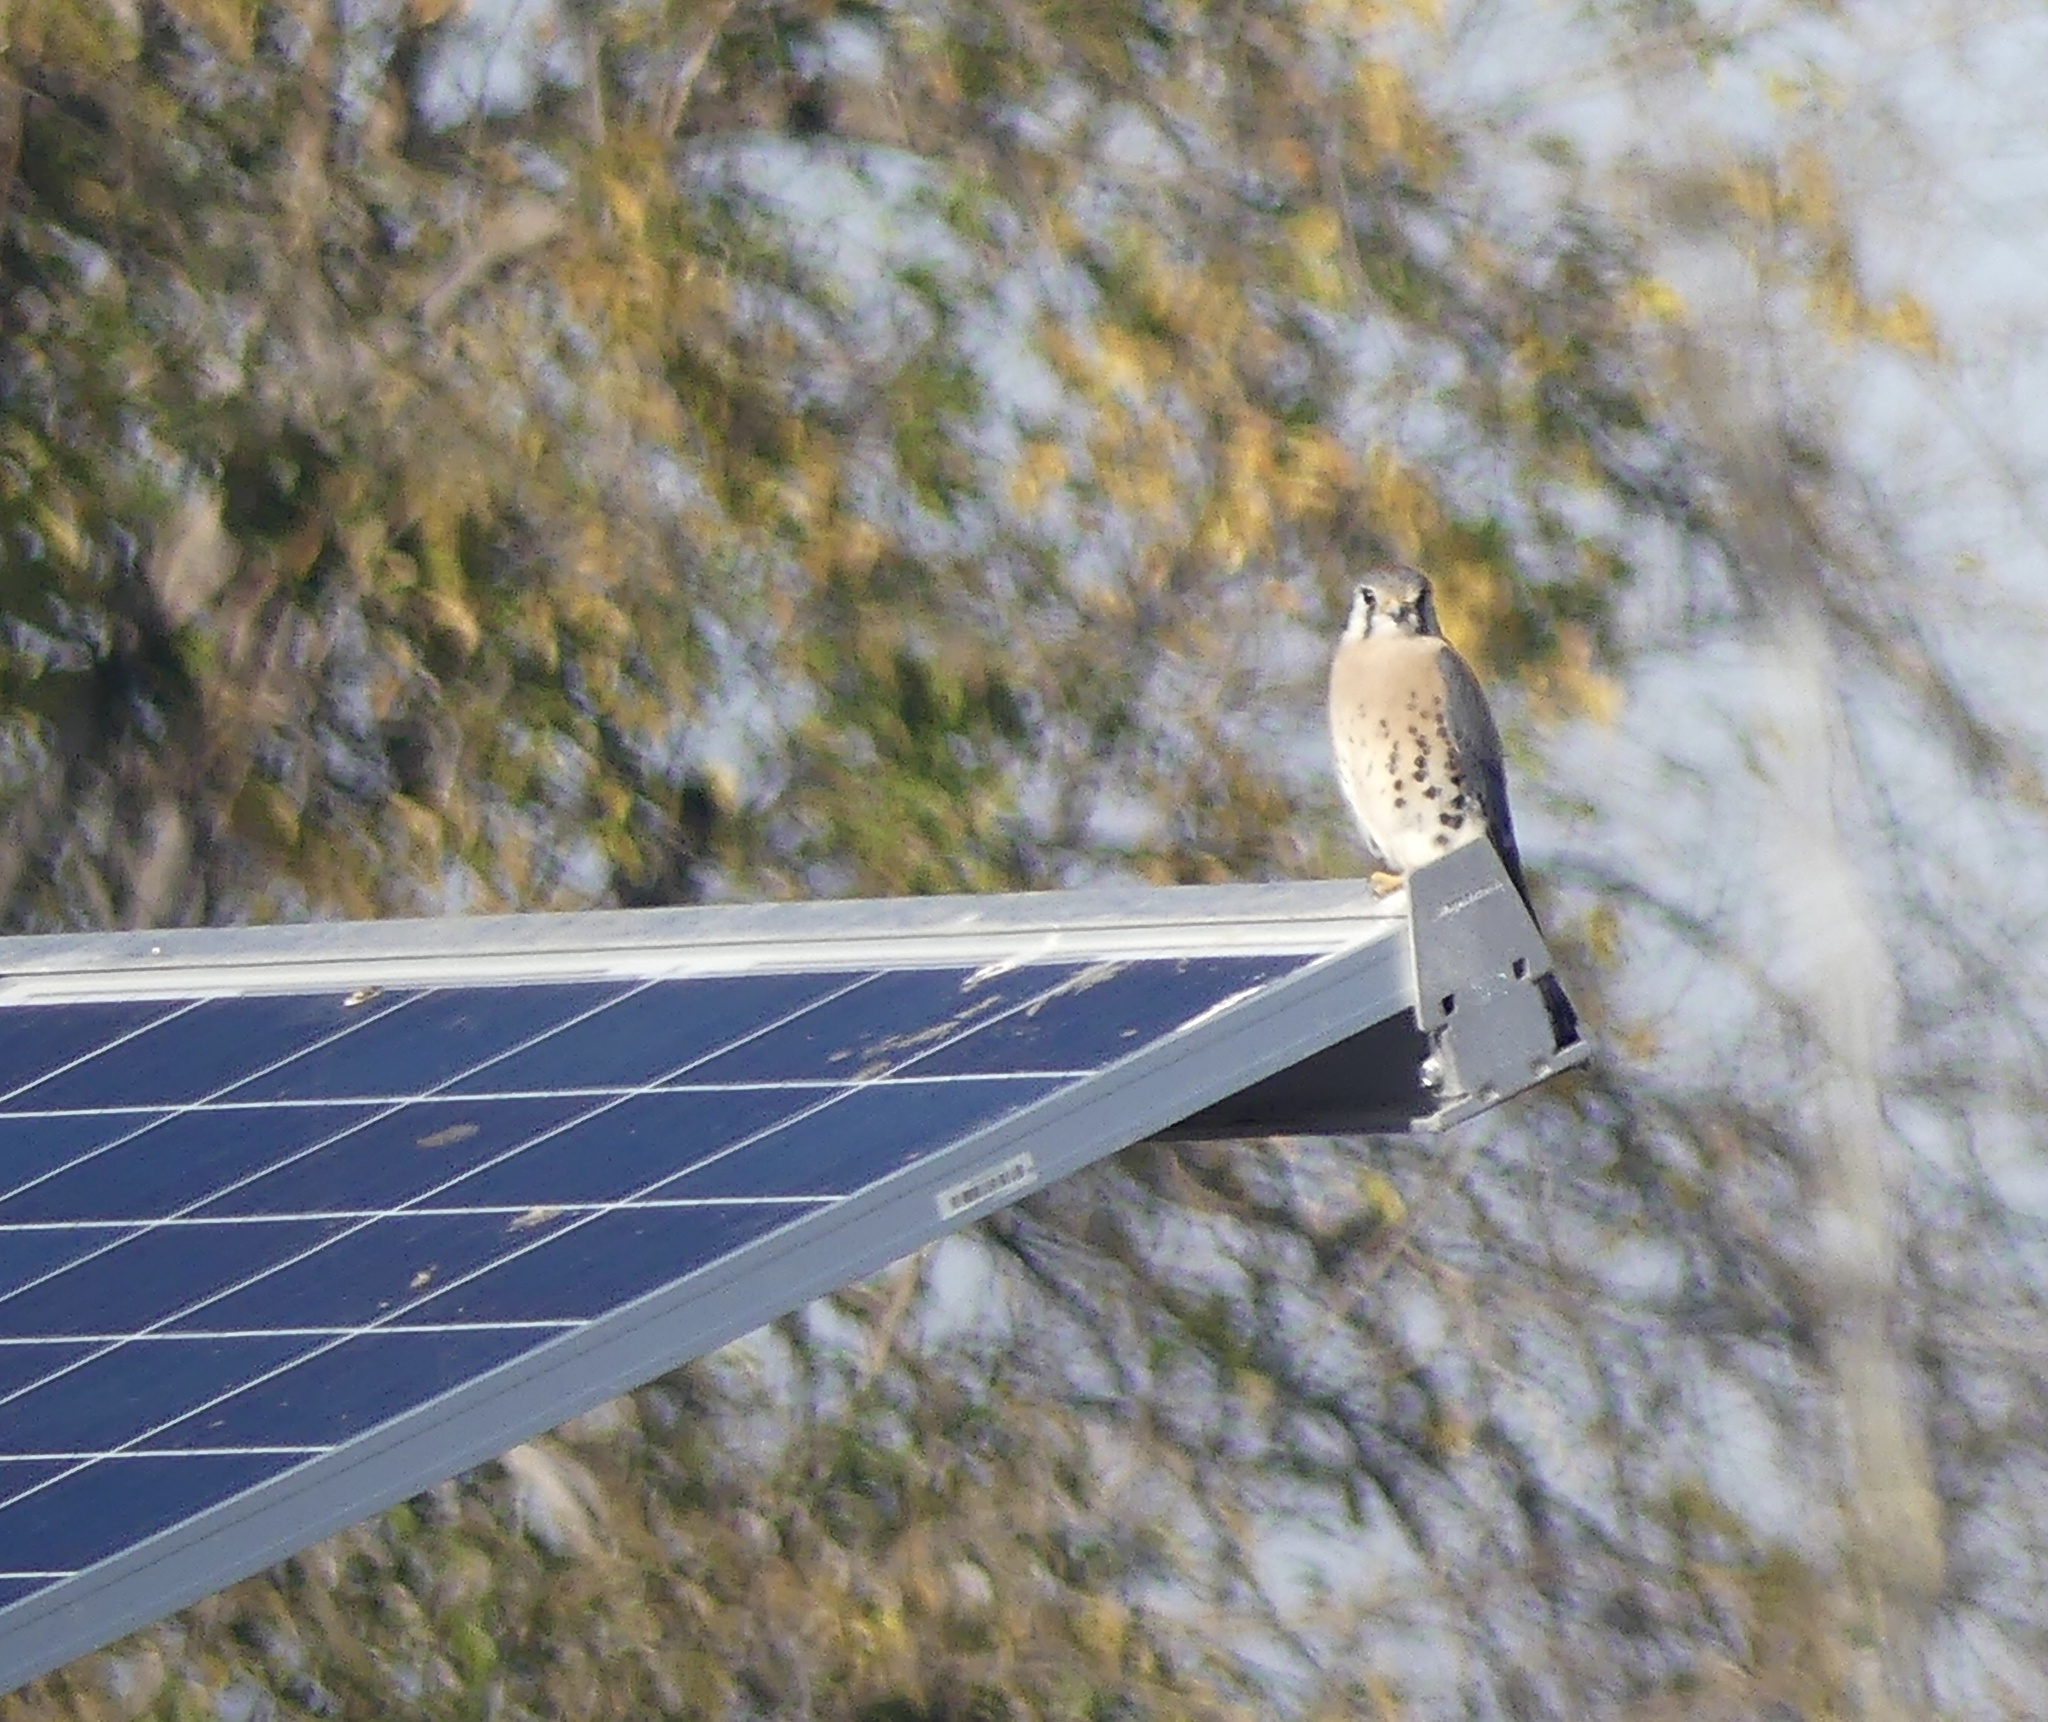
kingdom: Animalia
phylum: Chordata
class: Aves
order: Falconiformes
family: Falconidae
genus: Falco
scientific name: Falco sparverius
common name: American kestrel
